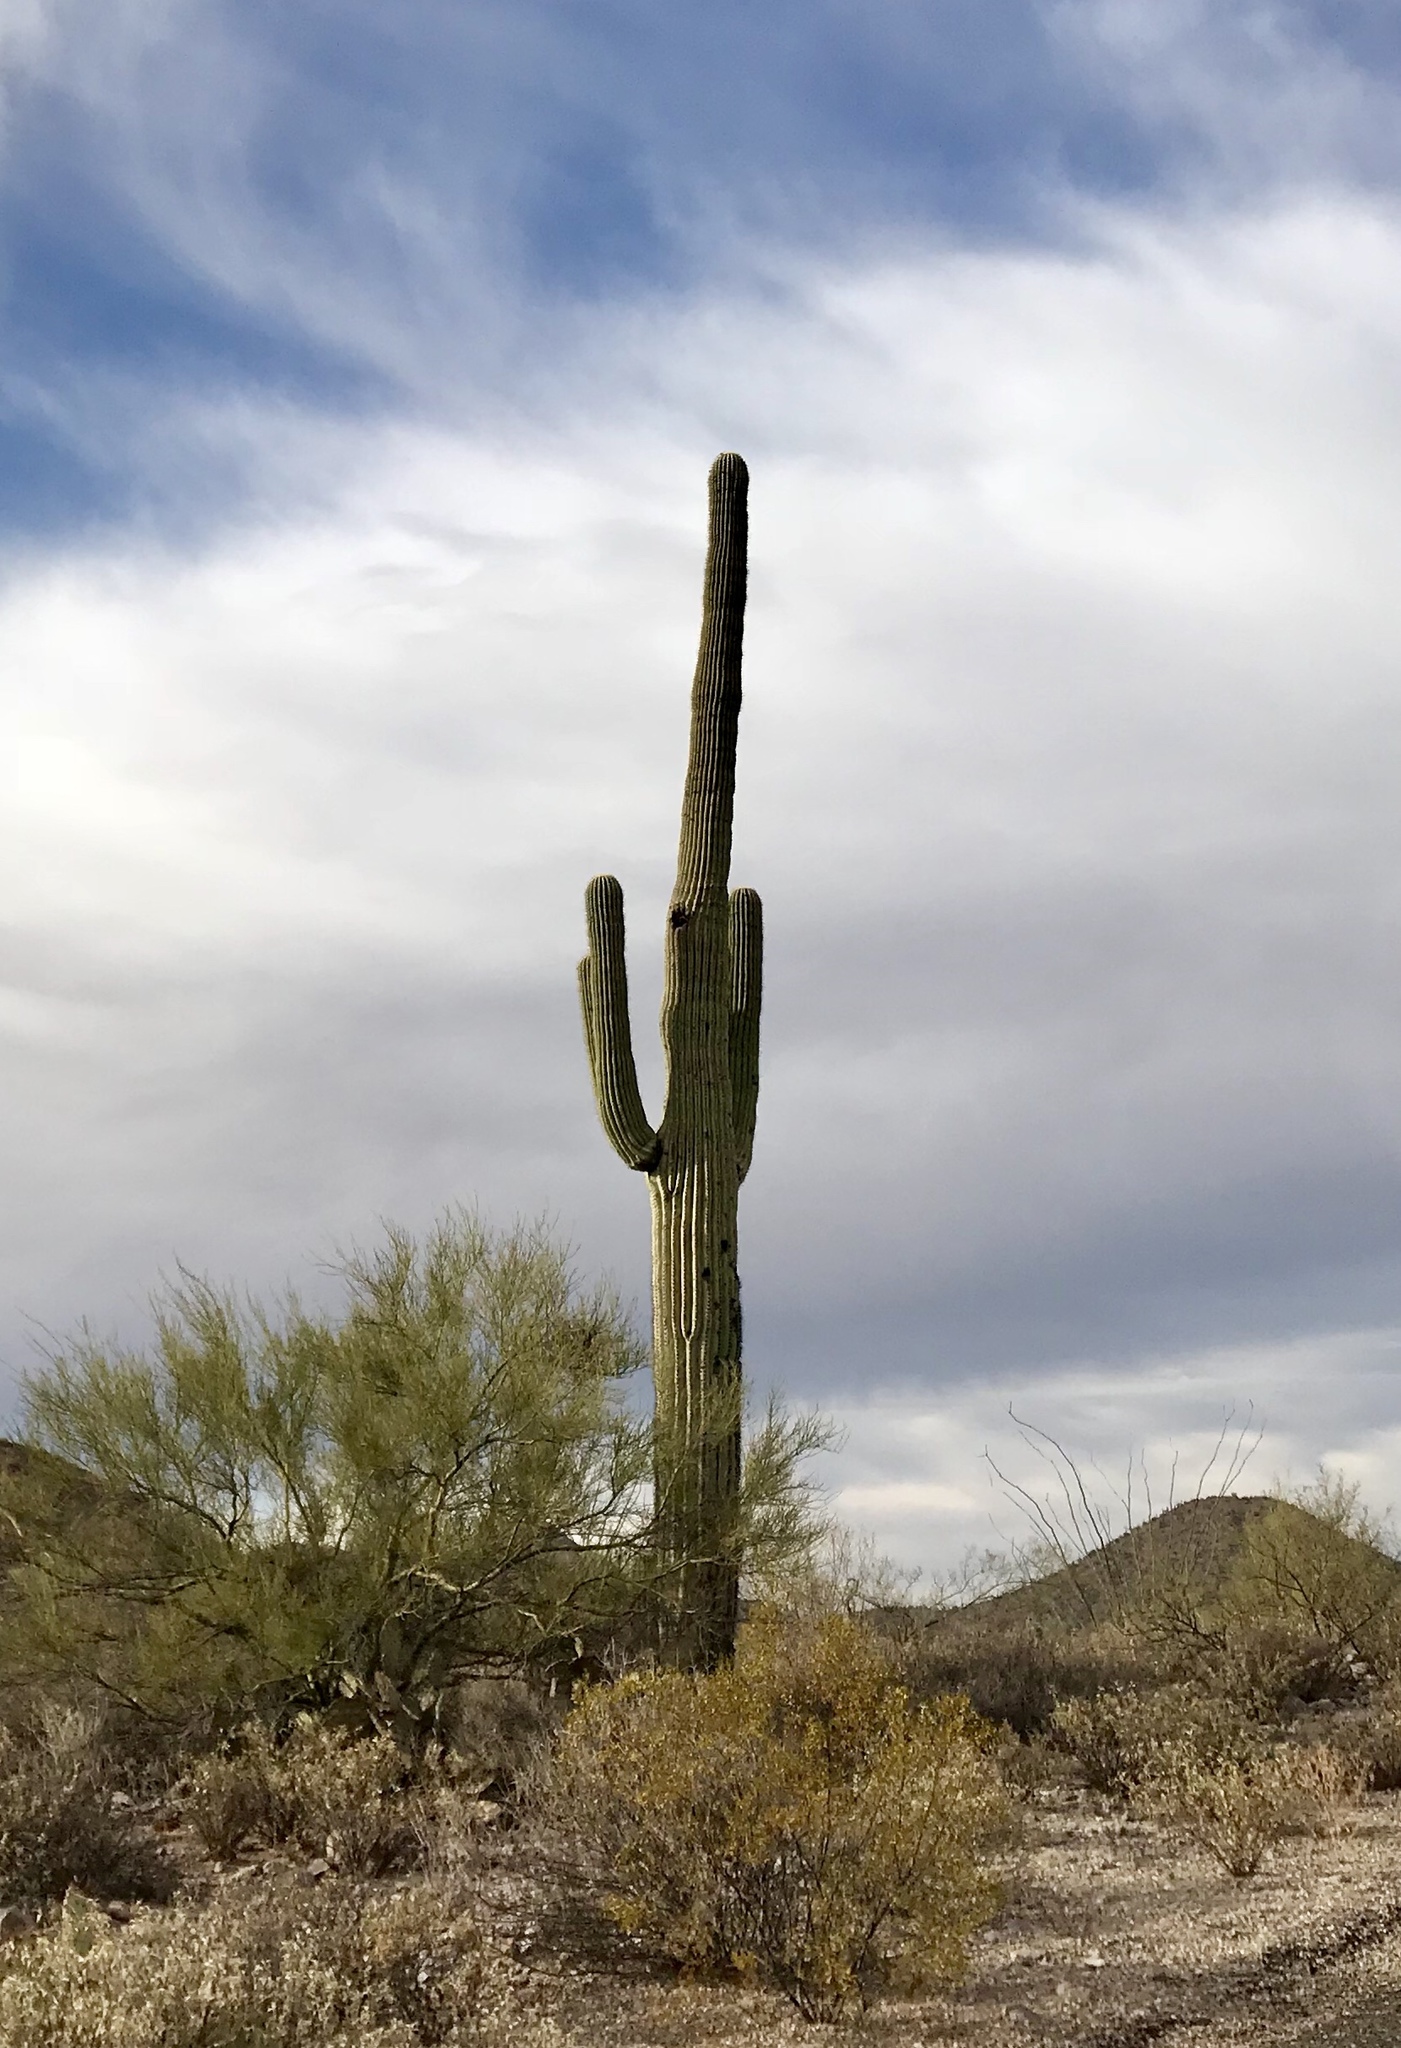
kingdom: Plantae
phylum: Tracheophyta
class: Magnoliopsida
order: Caryophyllales
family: Cactaceae
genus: Carnegiea
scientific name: Carnegiea gigantea
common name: Saguaro
